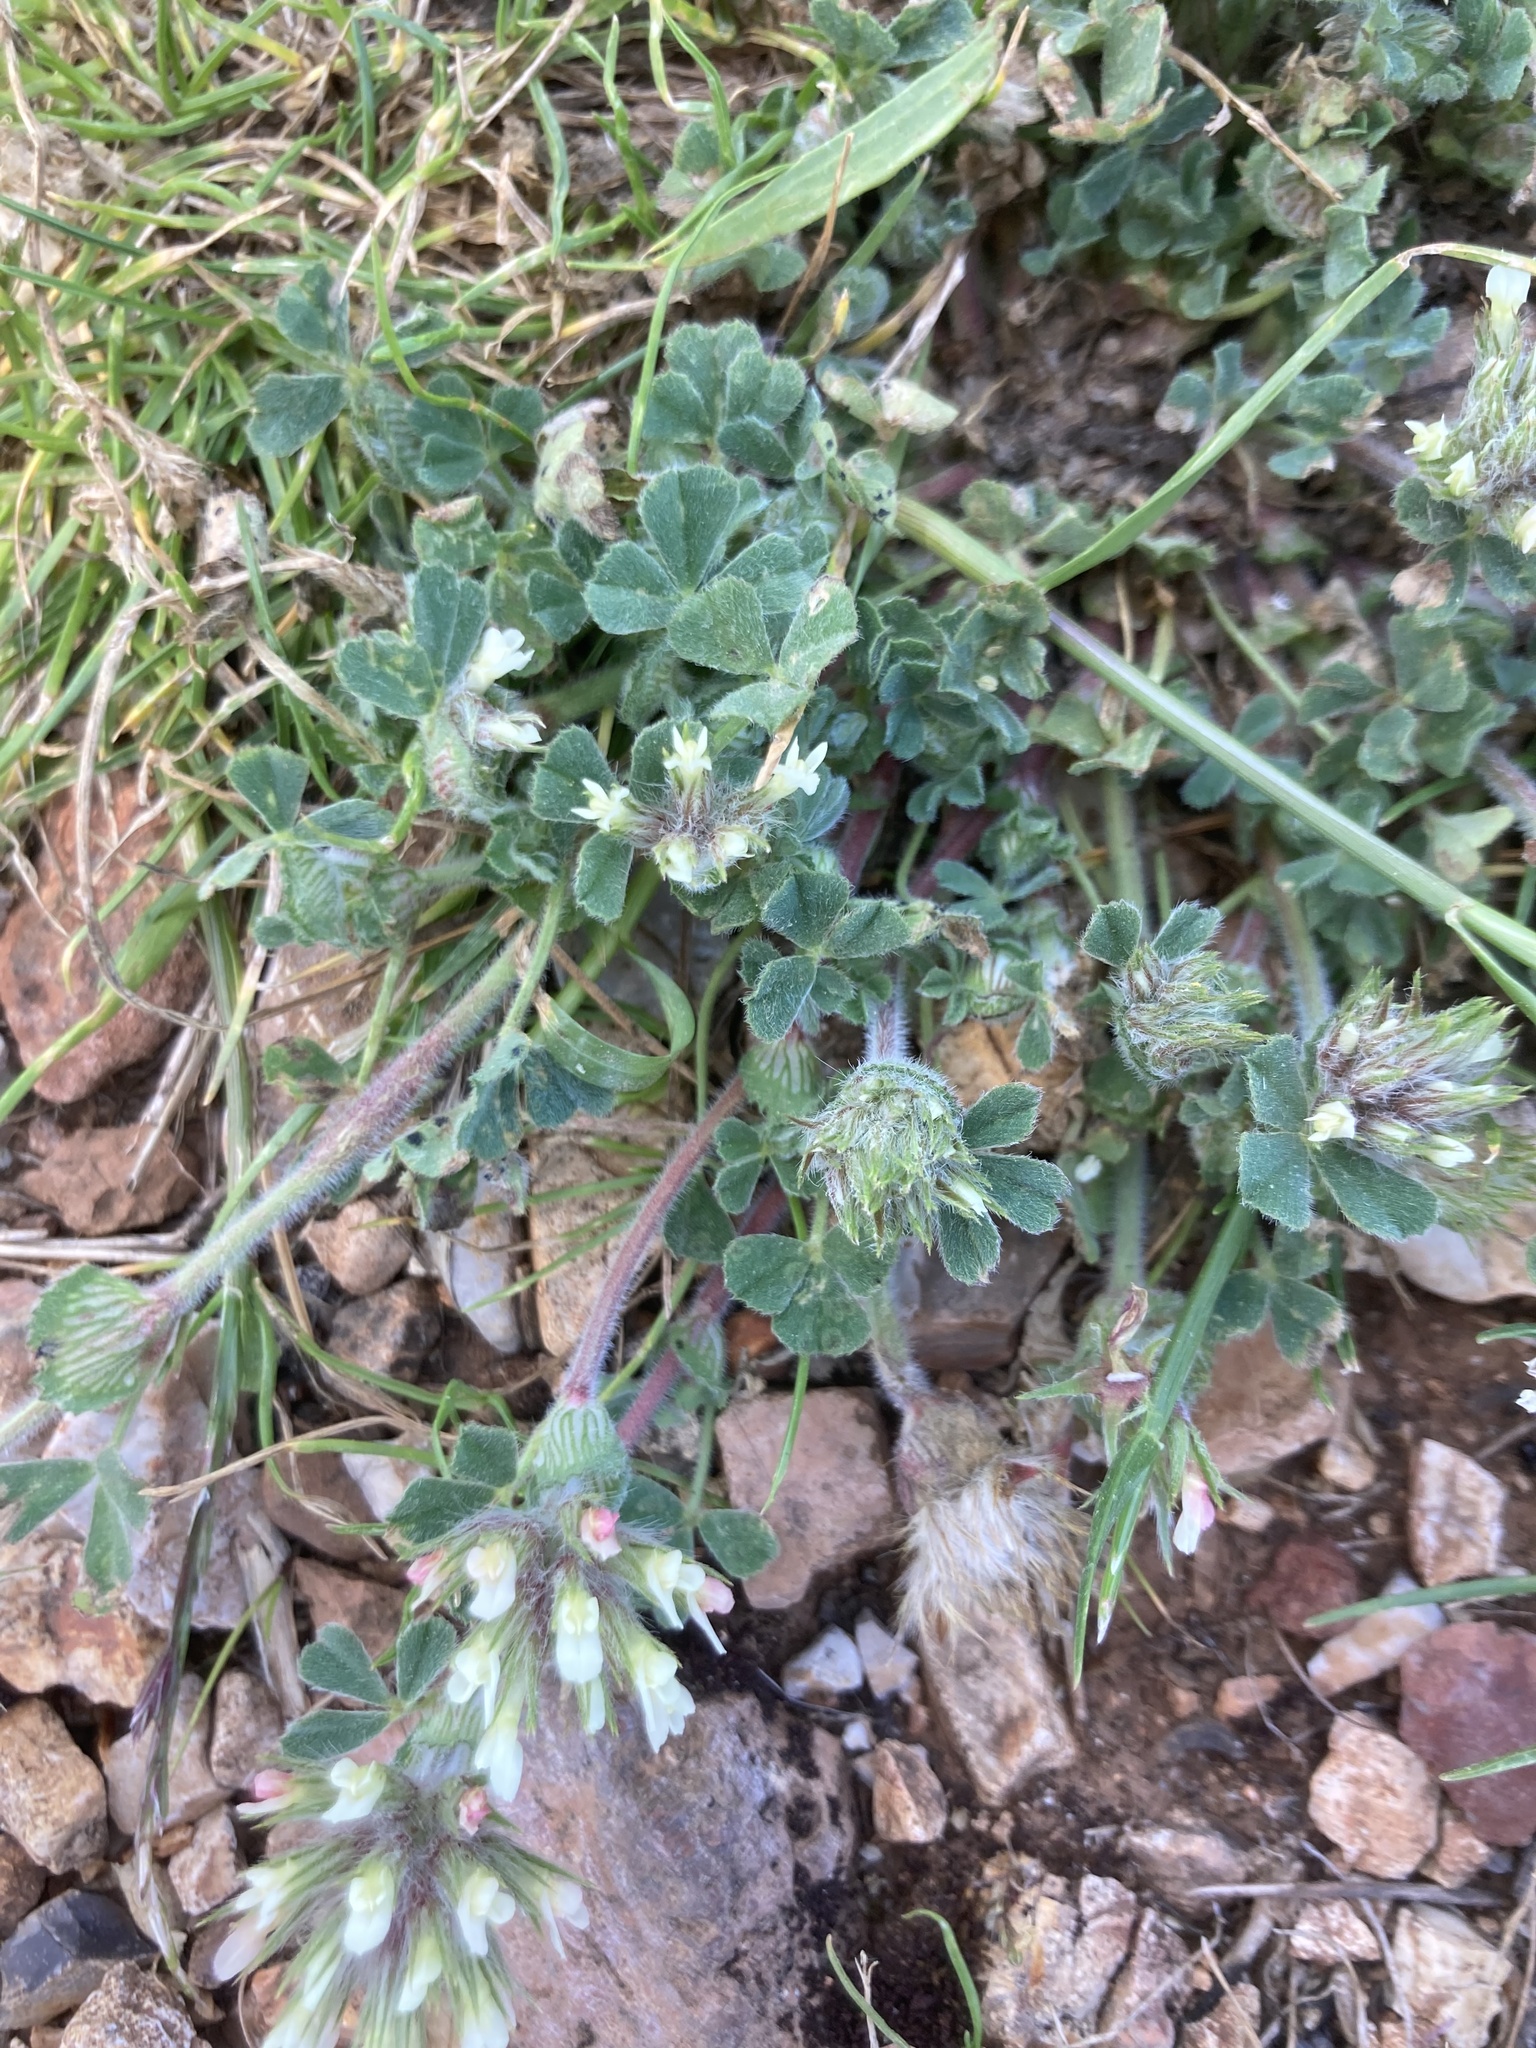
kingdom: Plantae
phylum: Tracheophyta
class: Magnoliopsida
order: Fabales
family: Fabaceae
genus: Trifolium
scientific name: Trifolium cherleri
